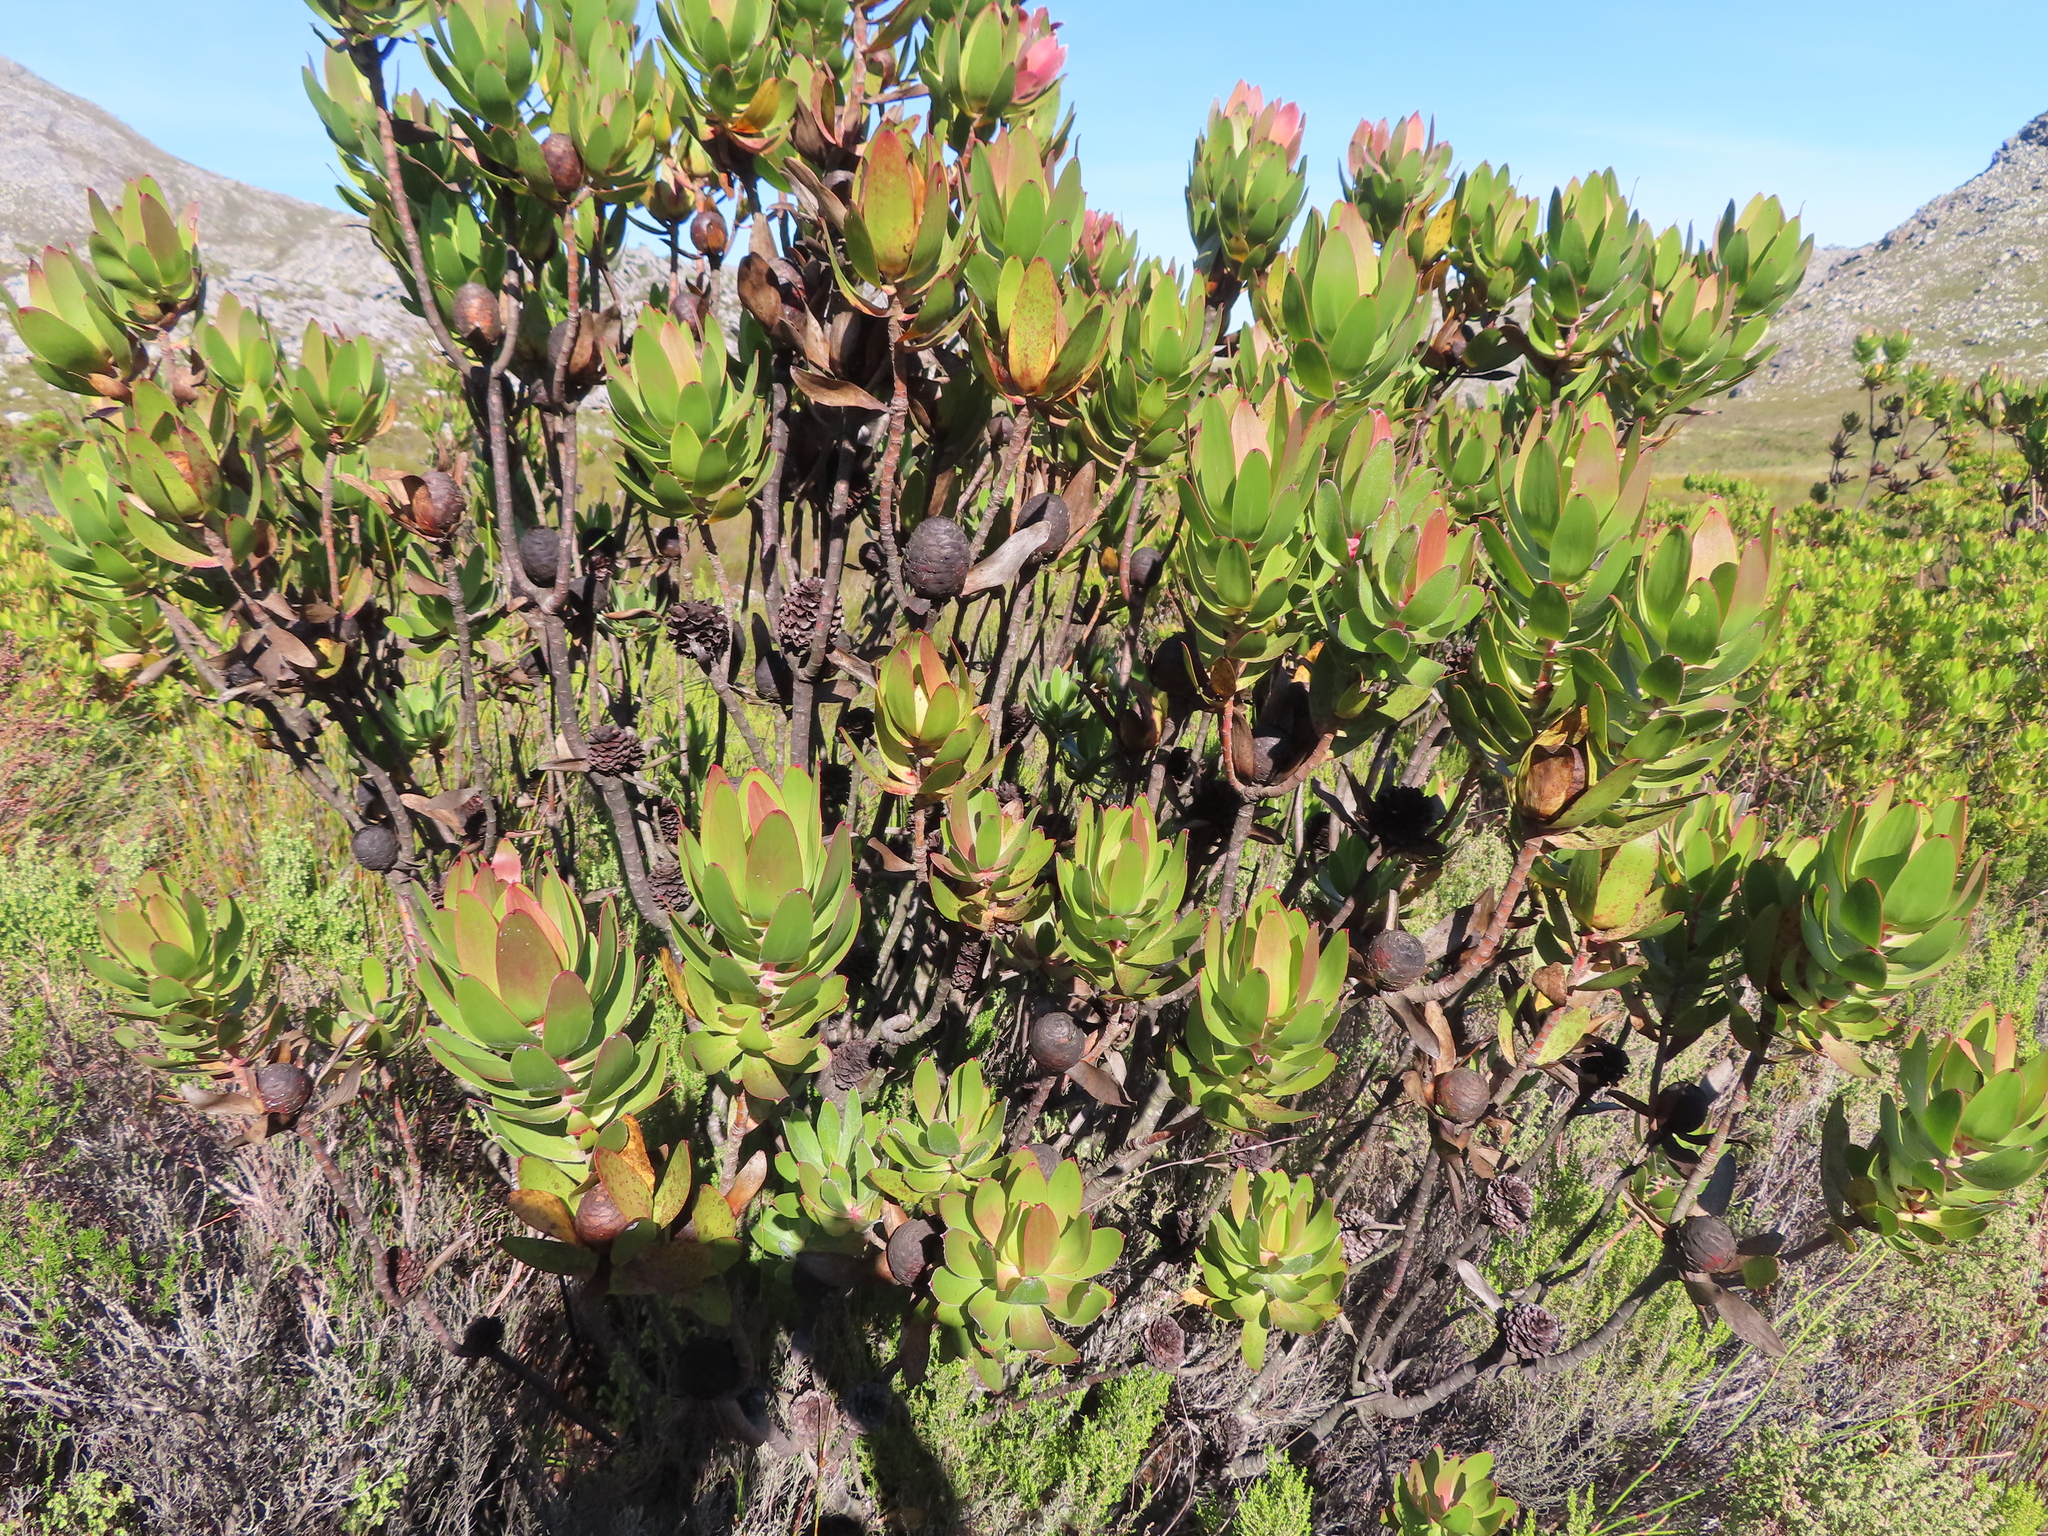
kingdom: Plantae
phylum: Tracheophyta
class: Magnoliopsida
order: Proteales
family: Proteaceae
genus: Leucadendron
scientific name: Leucadendron gandogeri
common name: Broad-leaf conebush
